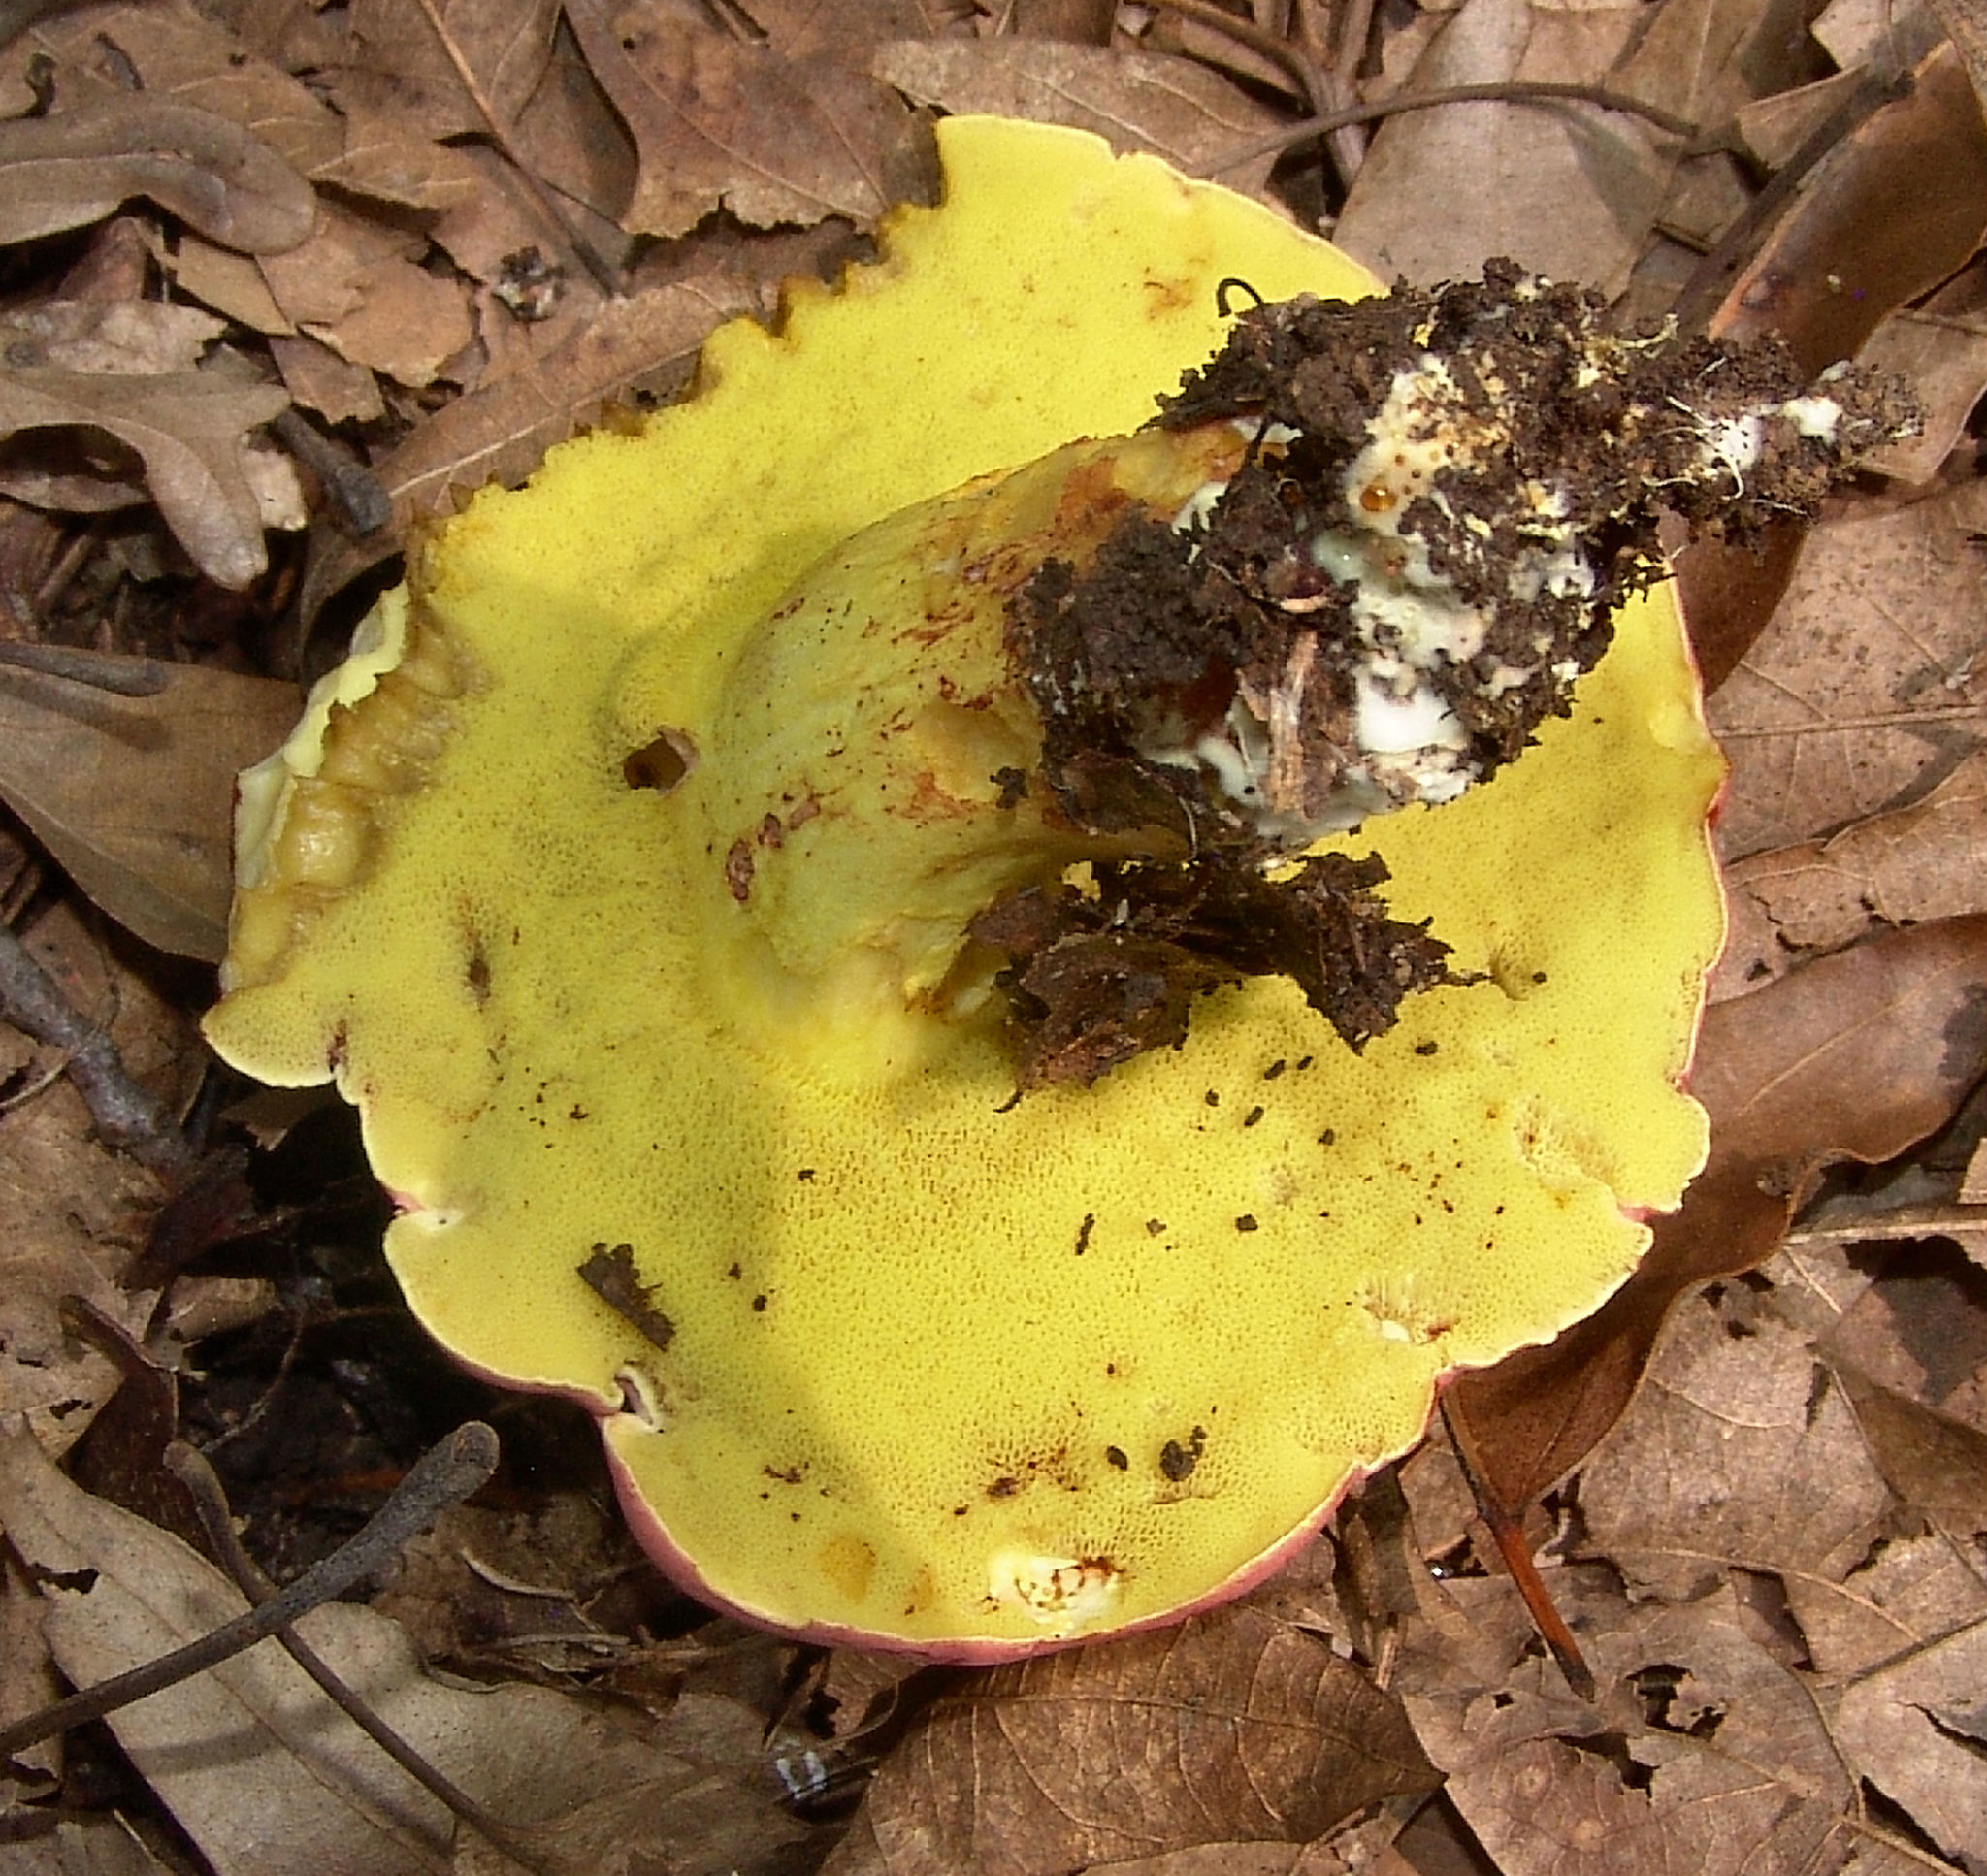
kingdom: Fungi
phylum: Basidiomycota
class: Agaricomycetes
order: Boletales
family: Boletaceae
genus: Boletus
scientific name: Boletus roodyi
